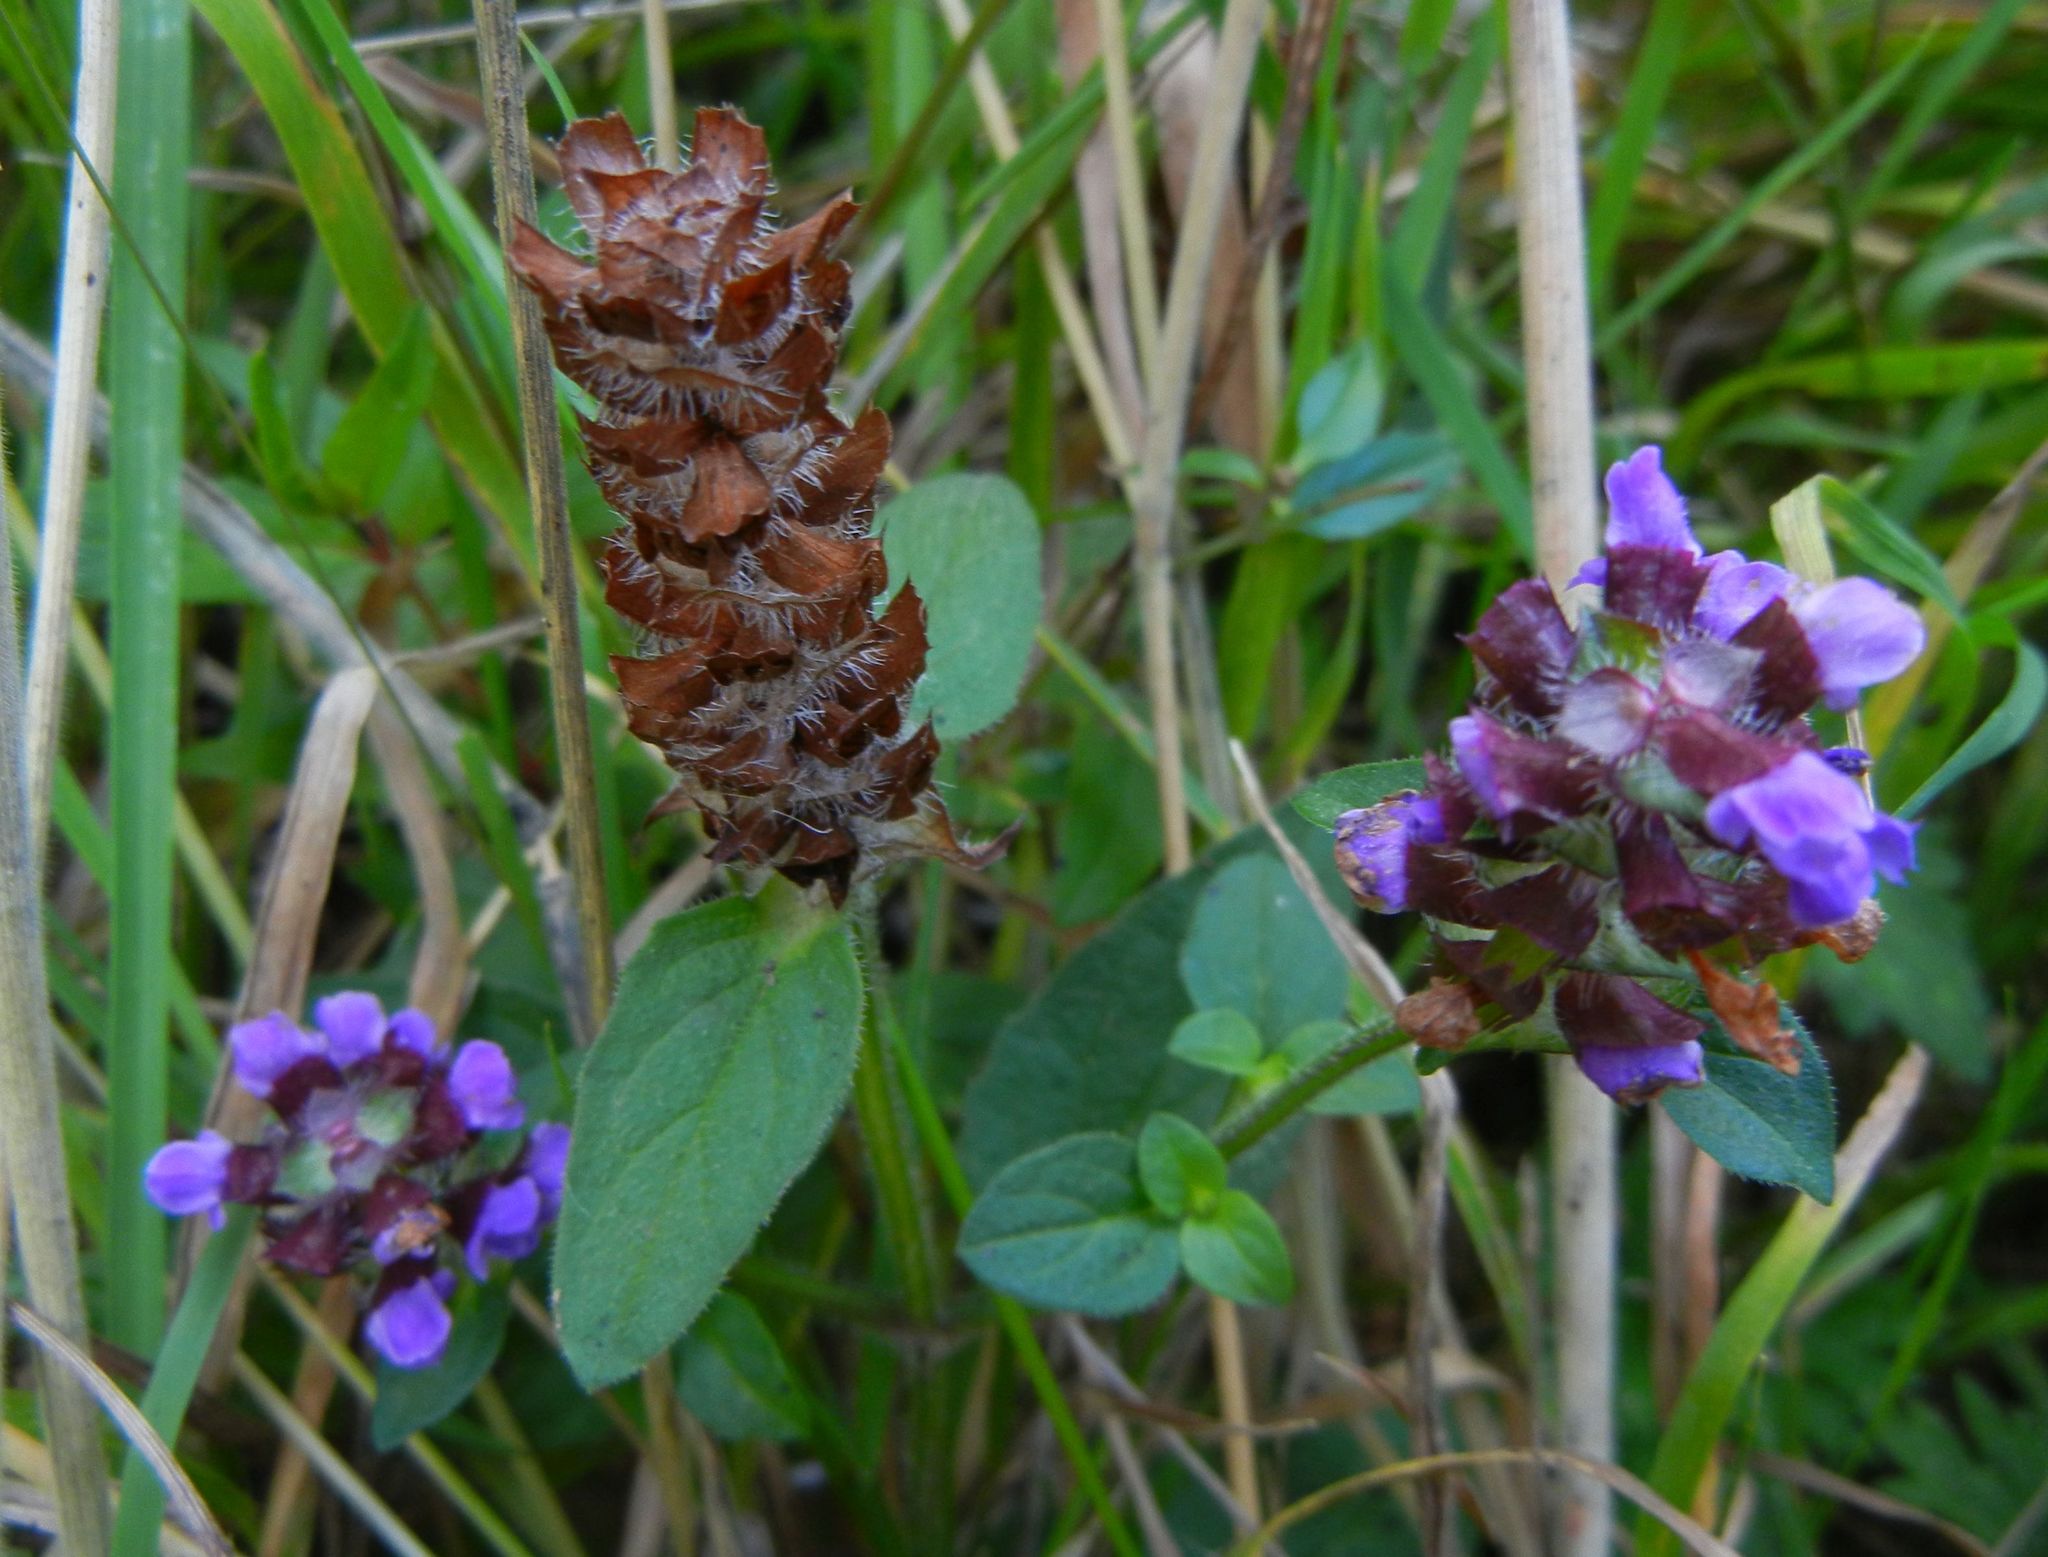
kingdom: Plantae
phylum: Tracheophyta
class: Magnoliopsida
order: Lamiales
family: Lamiaceae
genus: Prunella
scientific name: Prunella vulgaris
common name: Heal-all
